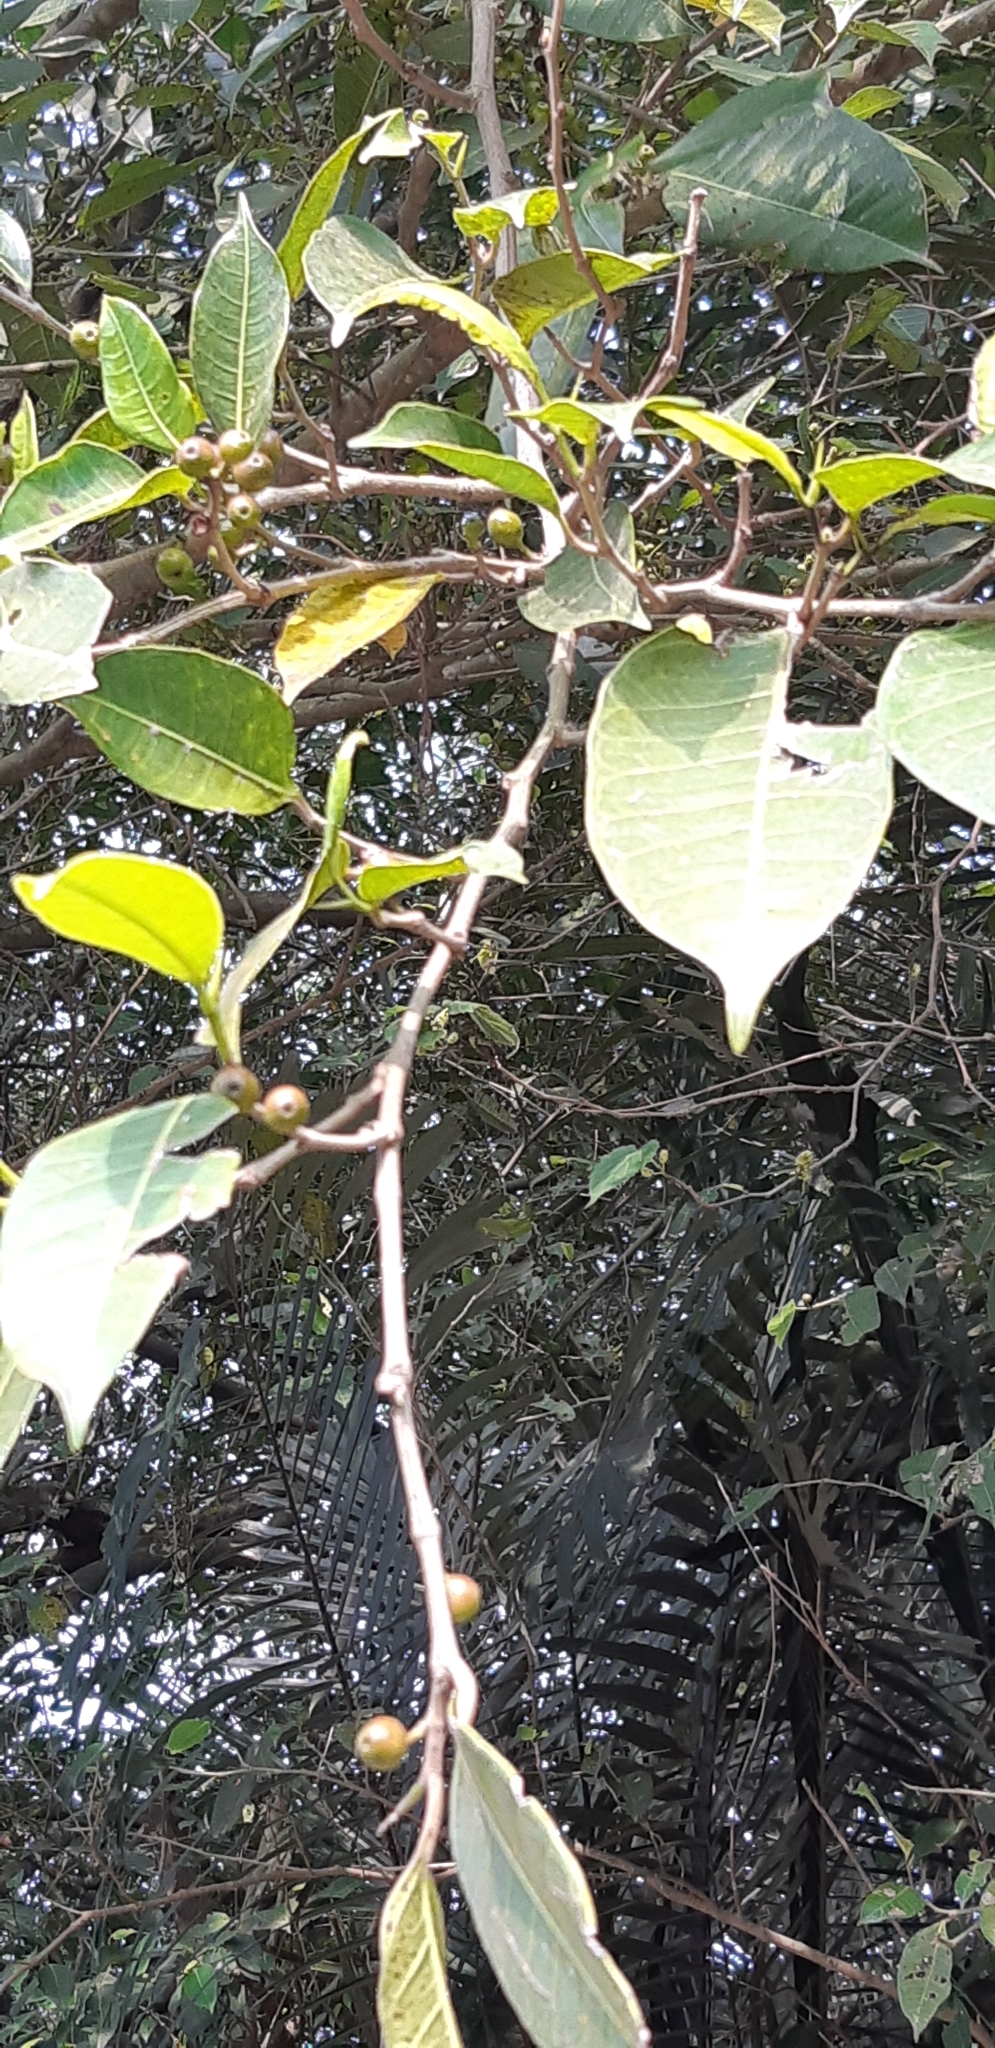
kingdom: Plantae
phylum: Tracheophyta
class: Magnoliopsida
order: Rosales
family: Moraceae
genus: Ficus
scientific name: Ficus virgata
